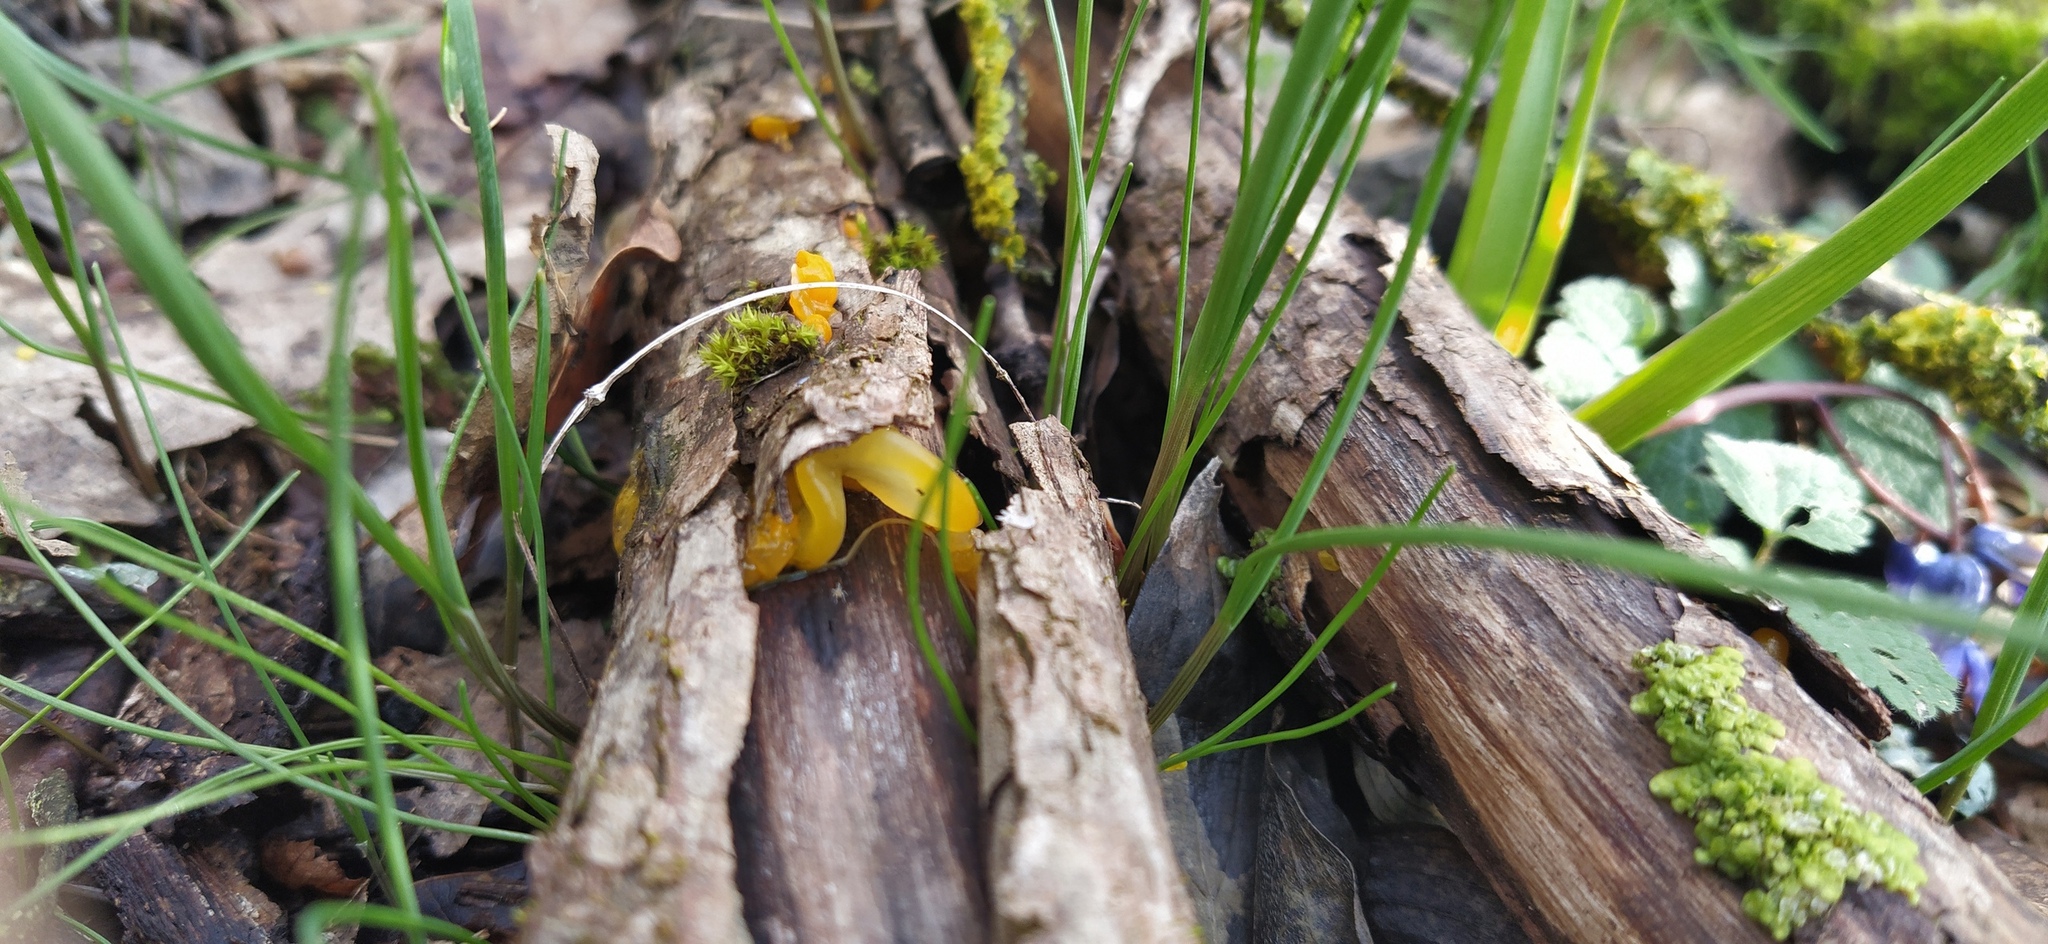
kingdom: Fungi
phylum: Basidiomycota
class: Tremellomycetes
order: Tremellales
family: Tremellaceae
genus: Tremella
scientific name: Tremella mesenterica
